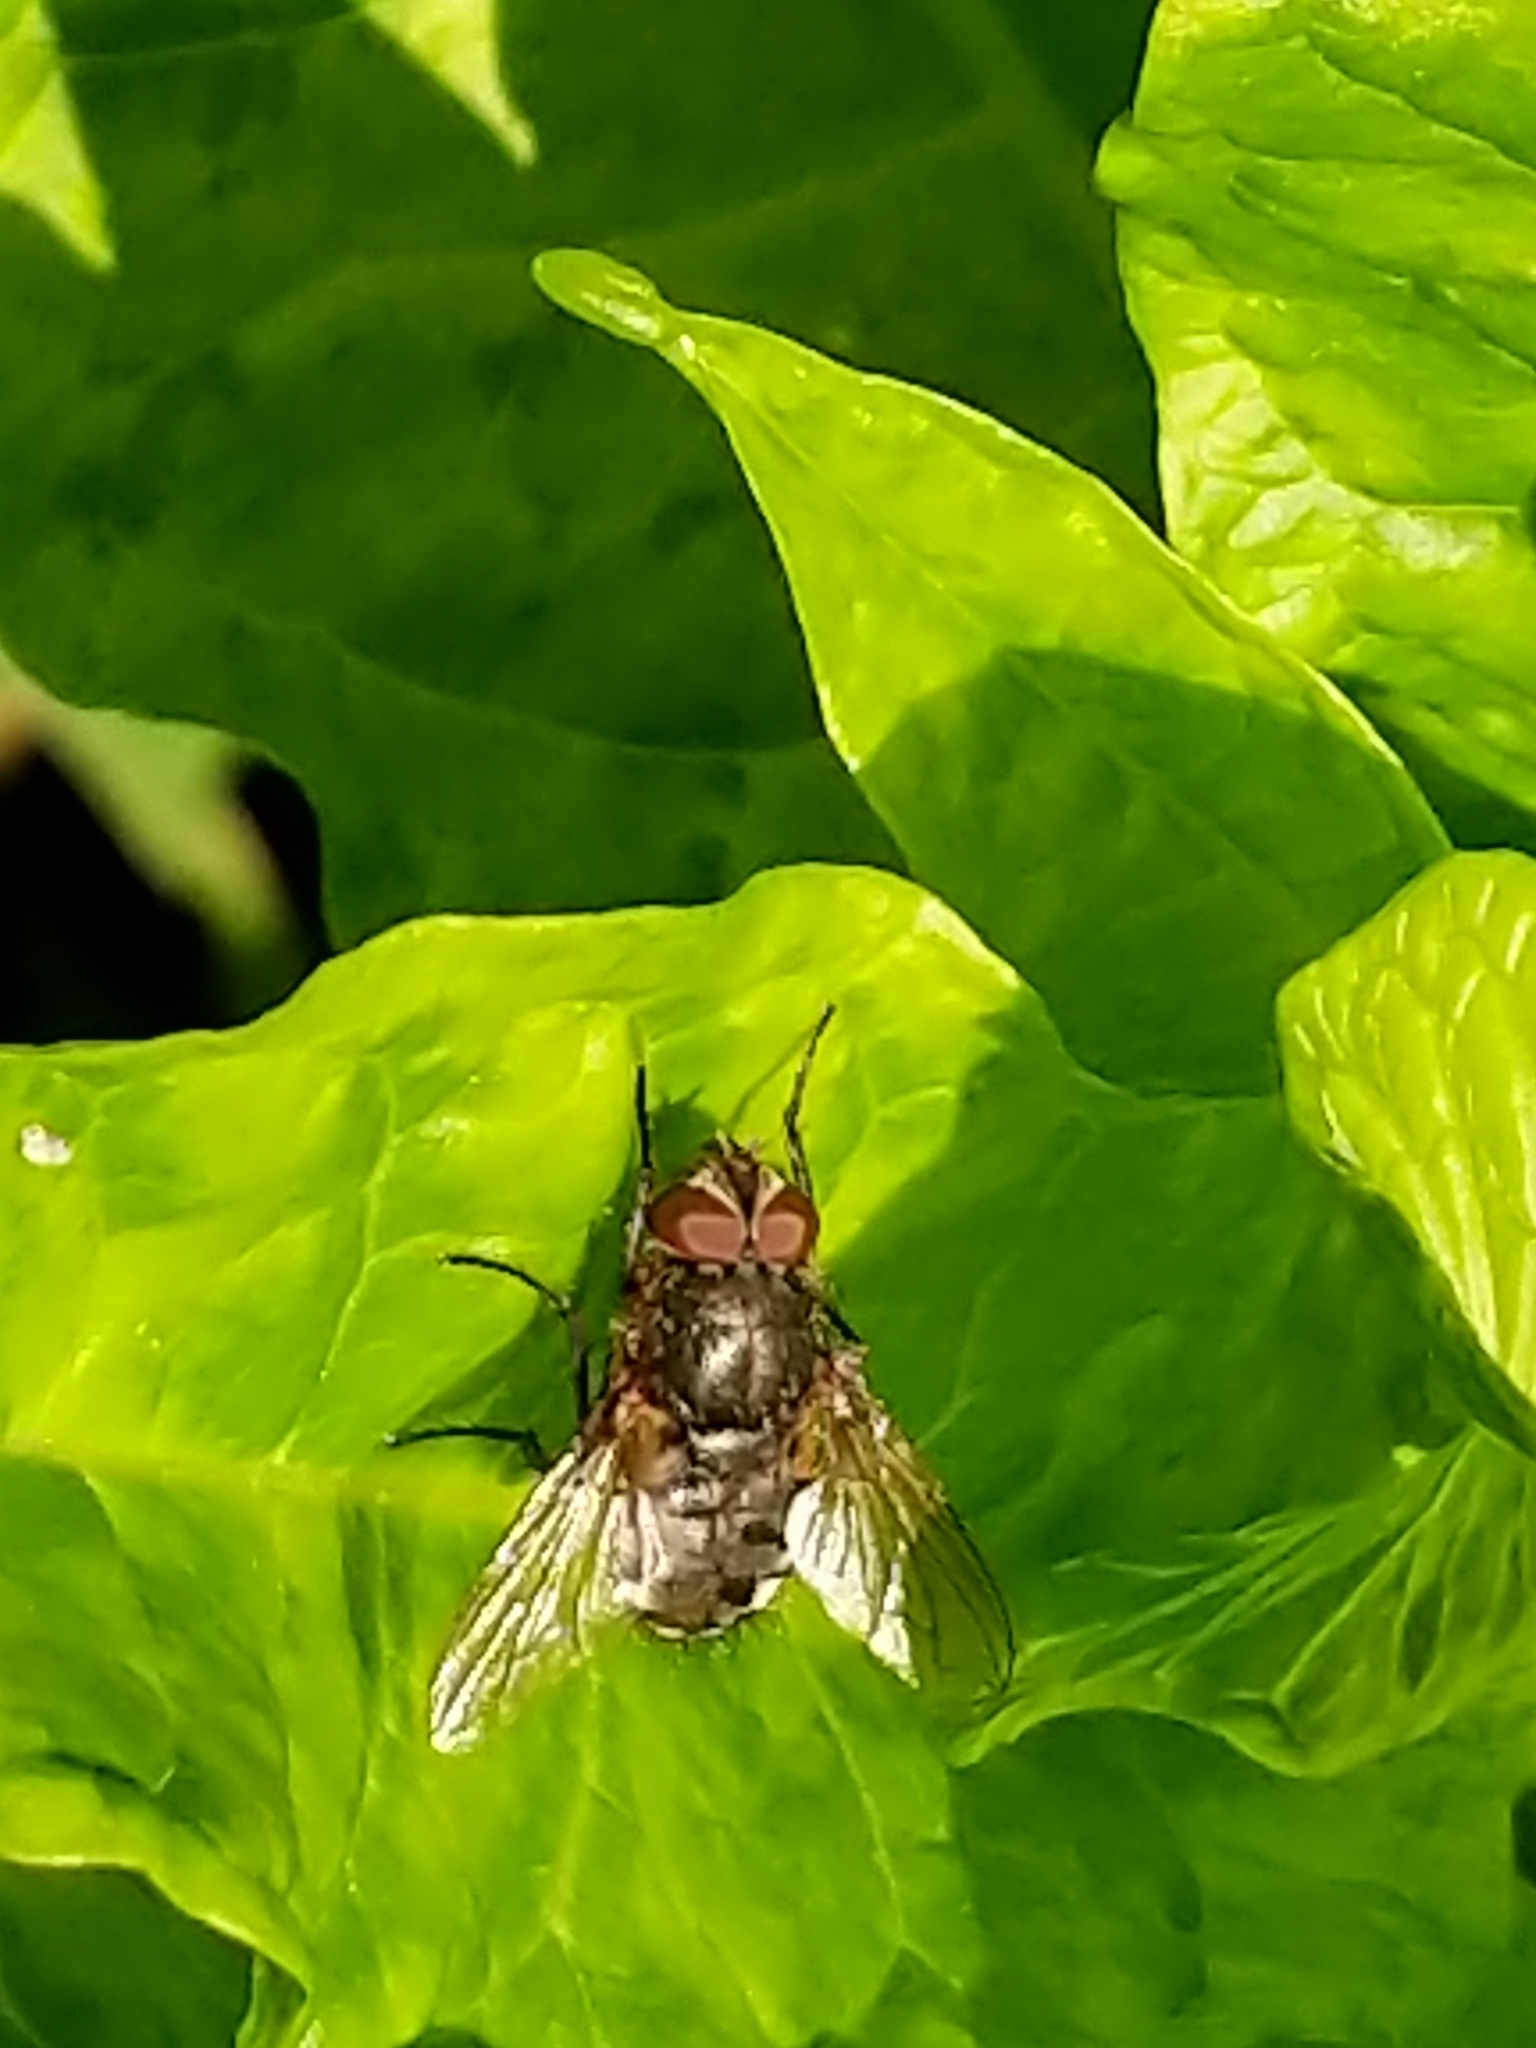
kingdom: Animalia
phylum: Arthropoda
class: Insecta
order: Diptera
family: Polleniidae
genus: Pollenia
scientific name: Pollenia
